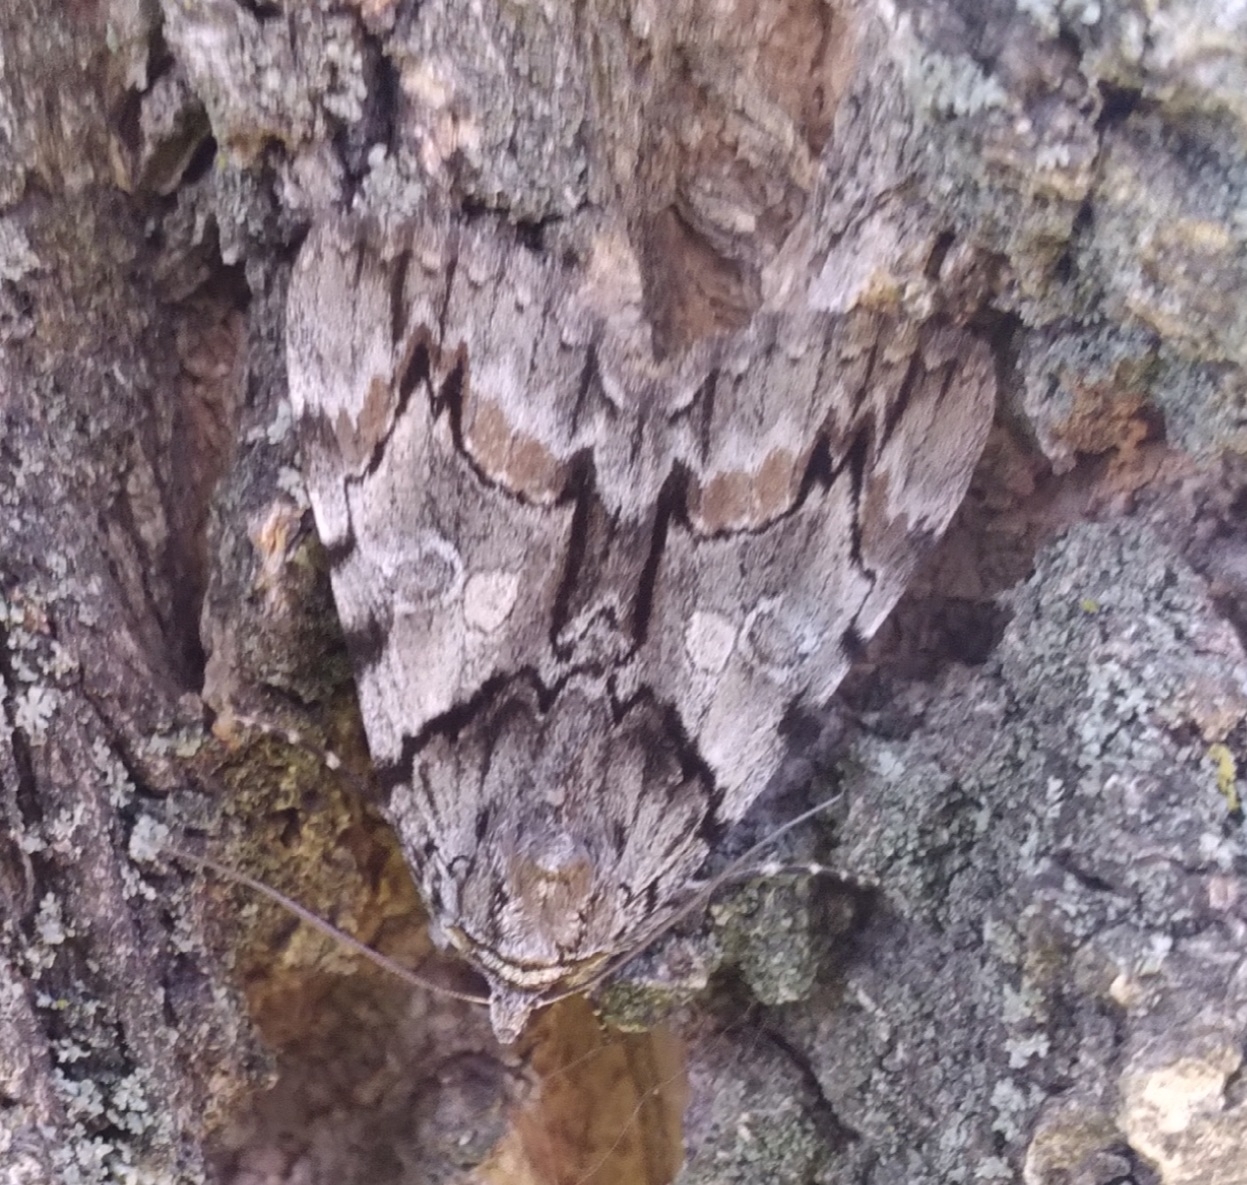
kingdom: Animalia
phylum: Arthropoda
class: Insecta
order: Lepidoptera
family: Erebidae
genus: Catocala
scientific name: Catocala blandula
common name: Charming underwing
